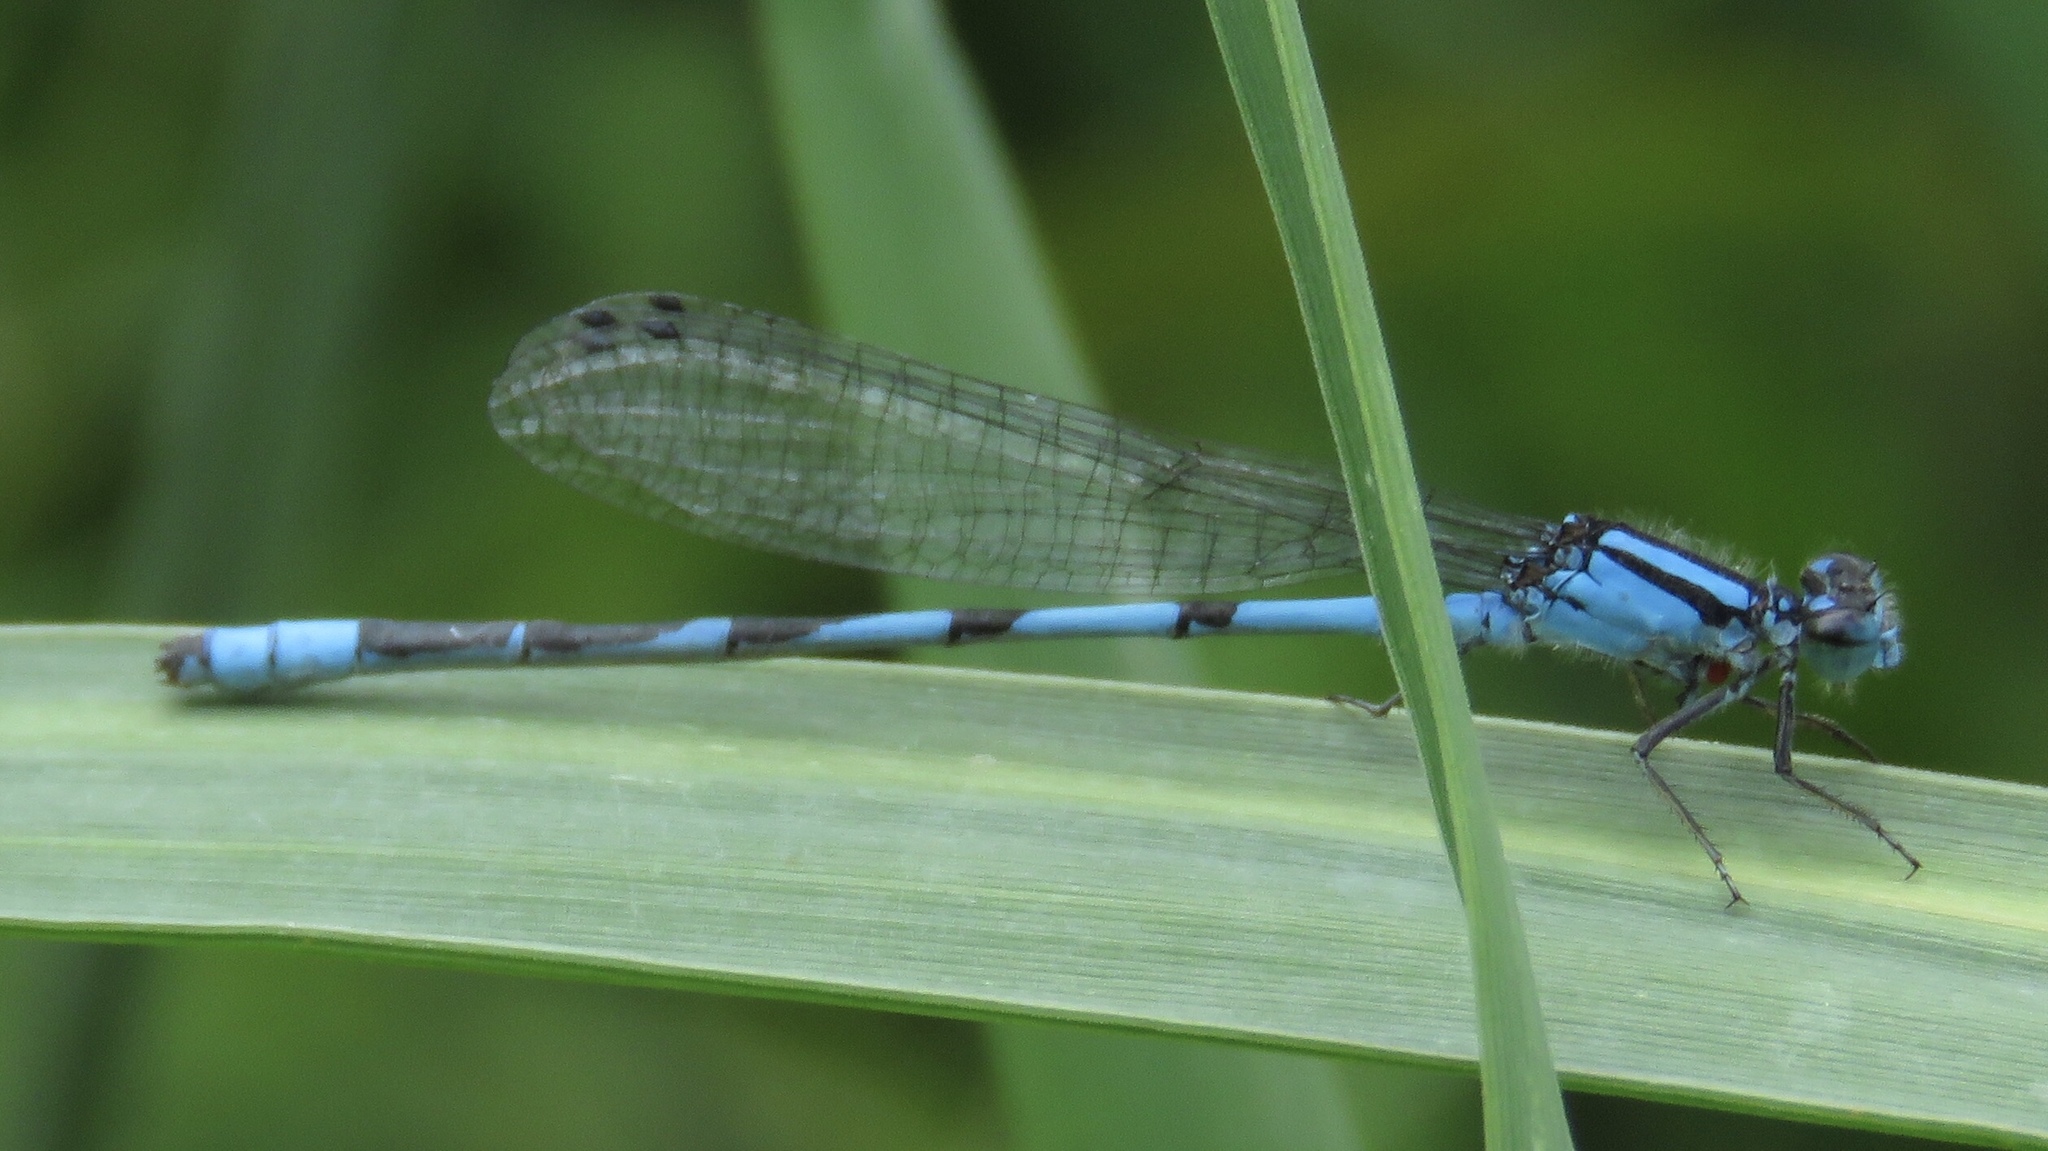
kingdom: Animalia
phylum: Arthropoda
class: Insecta
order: Odonata
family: Coenagrionidae
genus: Enallagma
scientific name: Enallagma ebrium
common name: Marsh bluet
